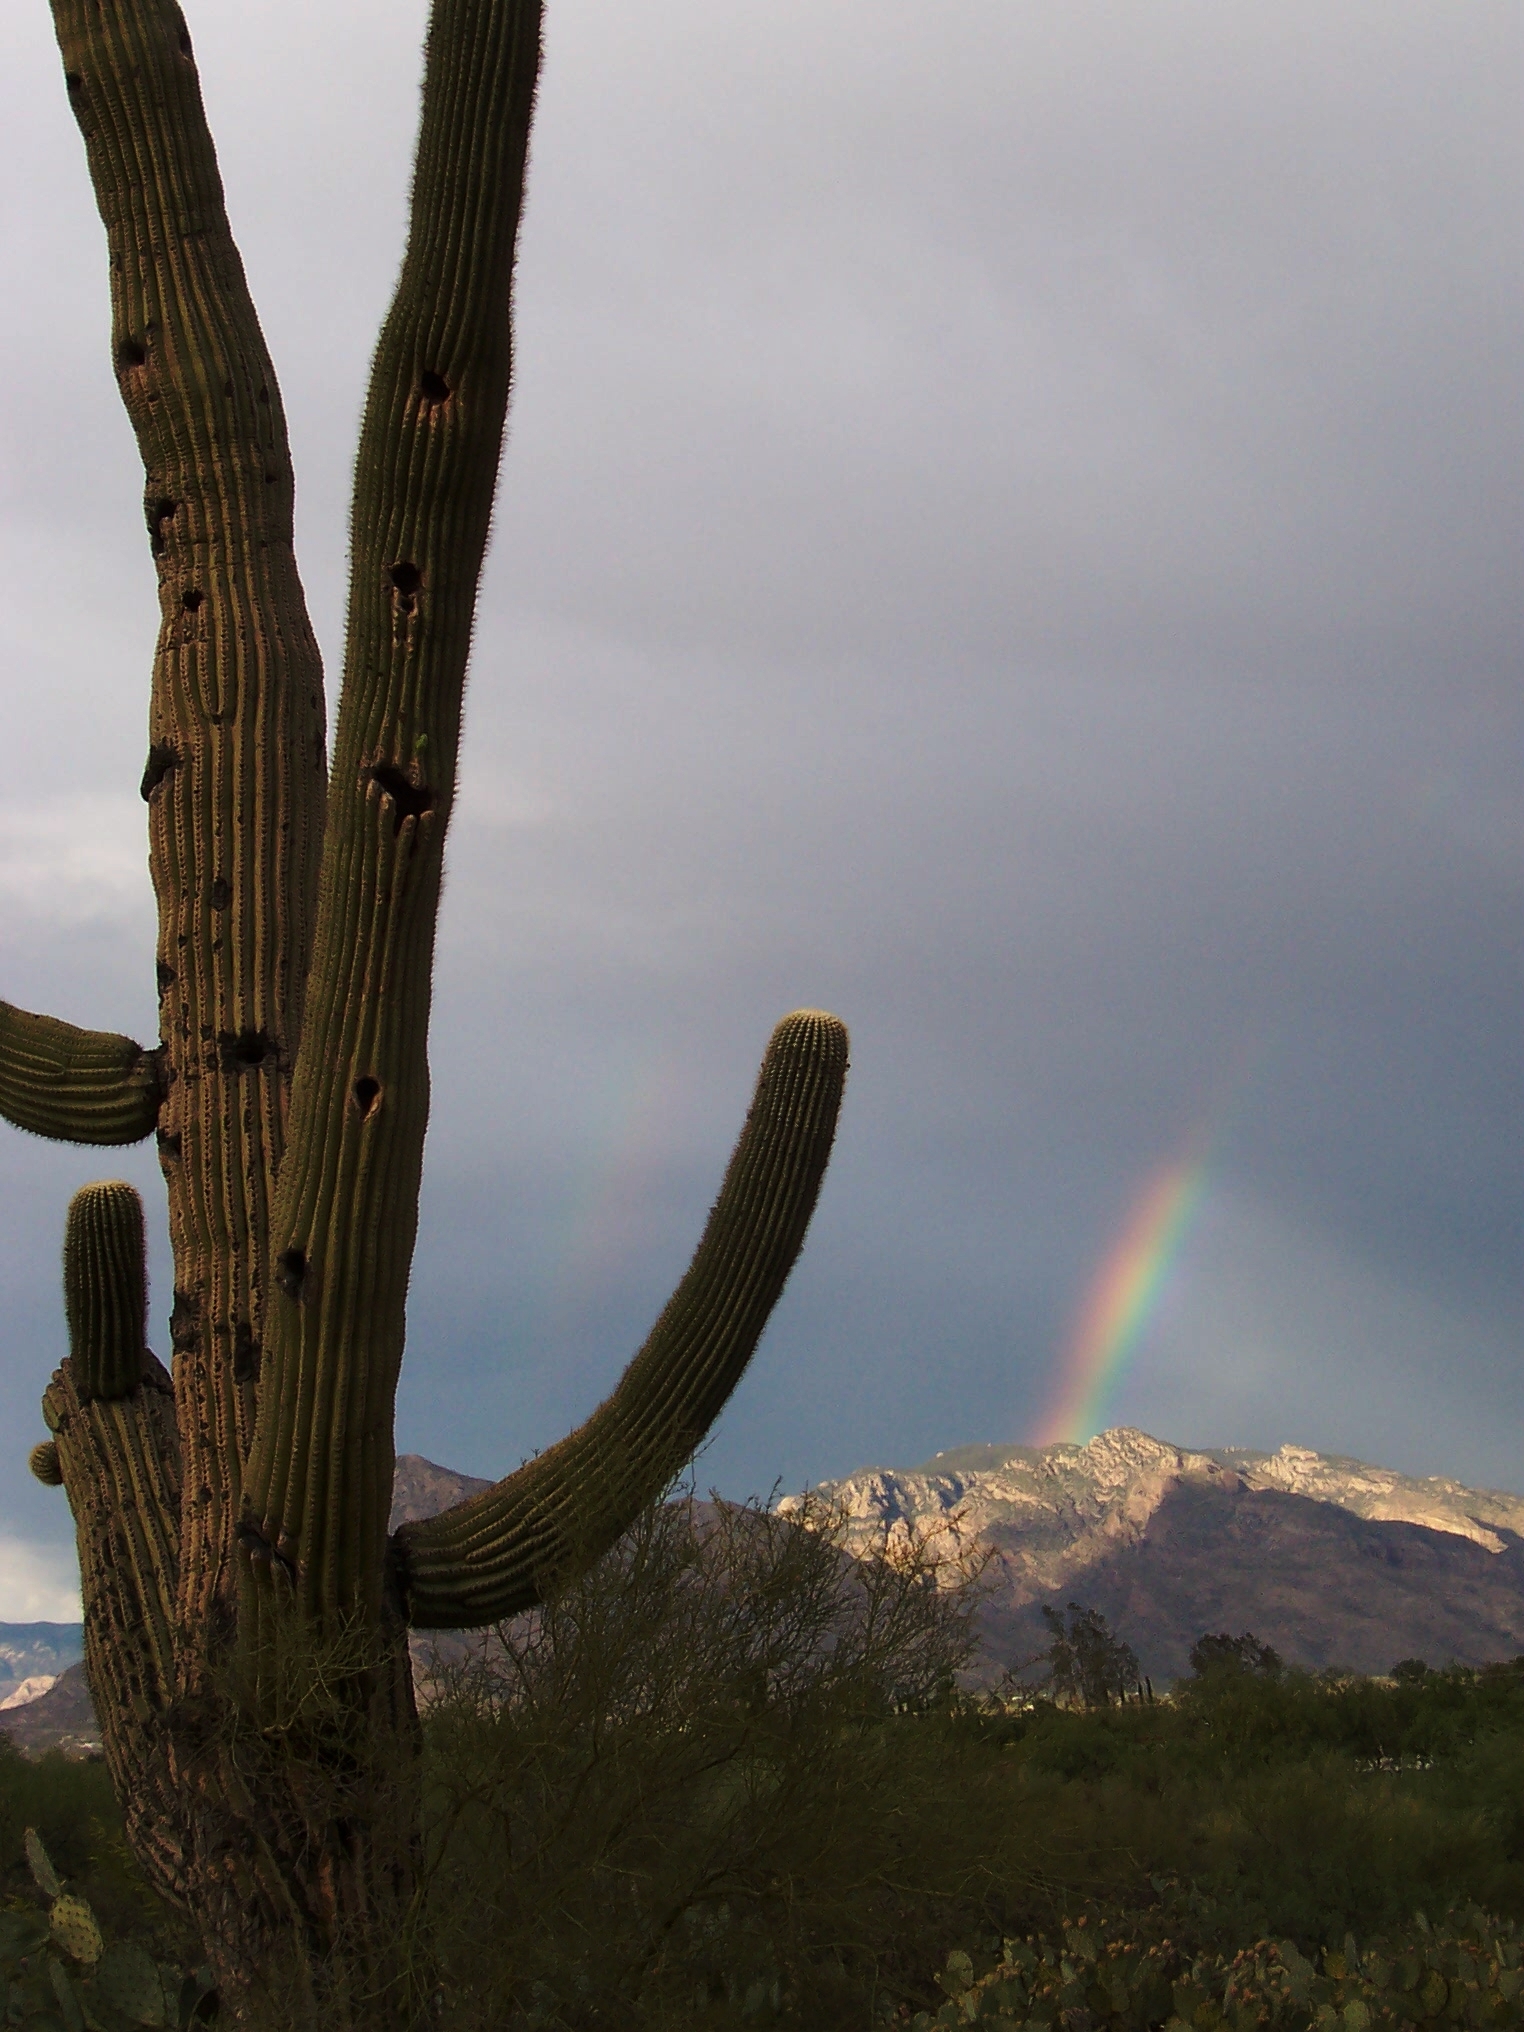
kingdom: Plantae
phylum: Tracheophyta
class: Magnoliopsida
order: Caryophyllales
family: Cactaceae
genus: Carnegiea
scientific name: Carnegiea gigantea
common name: Saguaro
